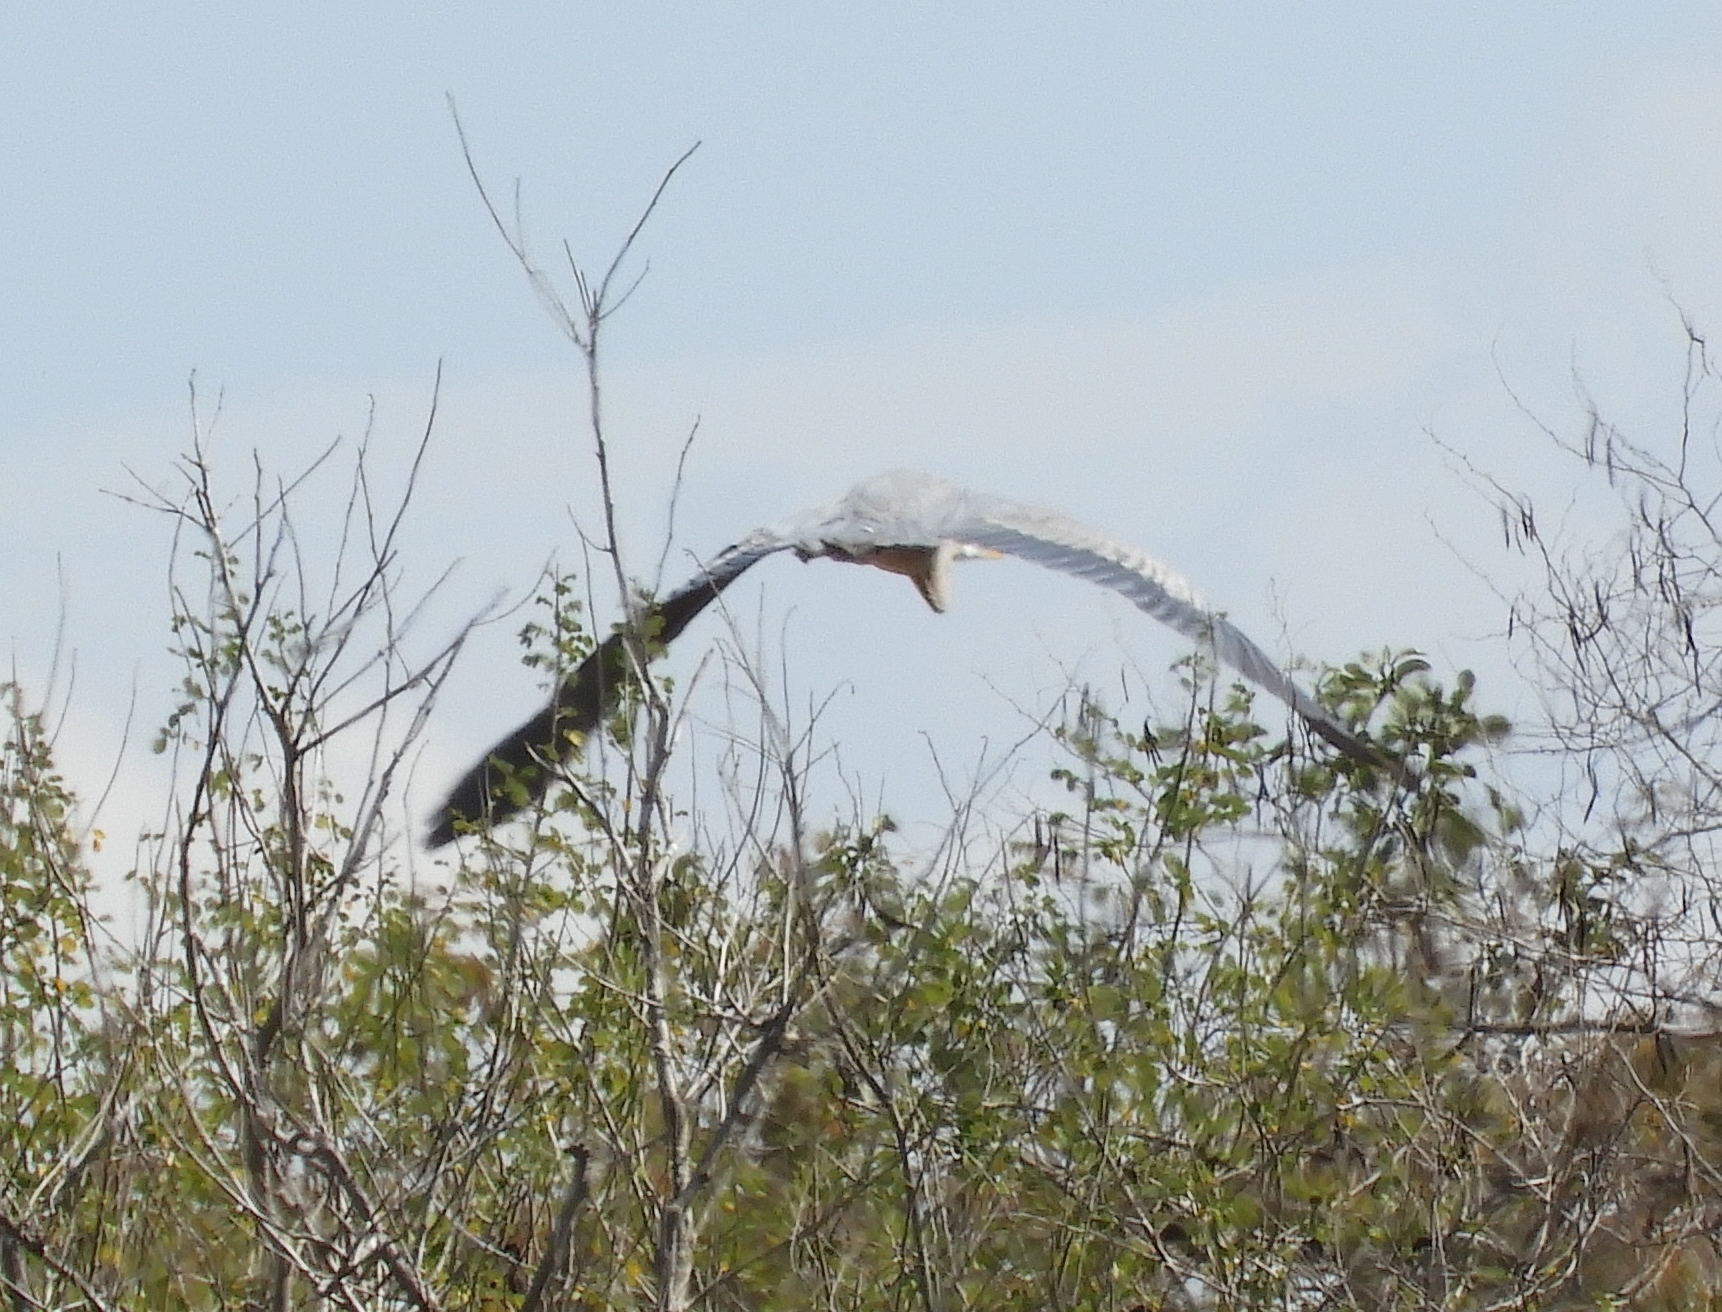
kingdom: Animalia
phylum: Chordata
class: Aves
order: Pelecaniformes
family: Ardeidae
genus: Ardea
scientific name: Ardea herodias
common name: Great blue heron
